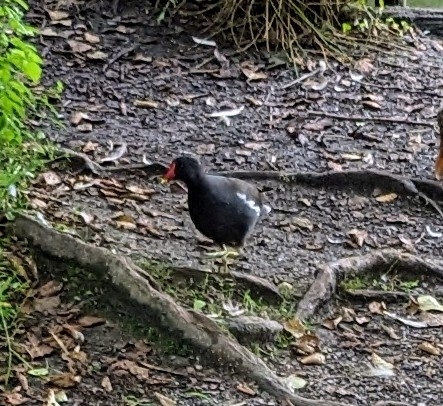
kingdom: Animalia
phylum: Chordata
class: Aves
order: Gruiformes
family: Rallidae
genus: Gallinula
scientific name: Gallinula chloropus
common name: Common moorhen
